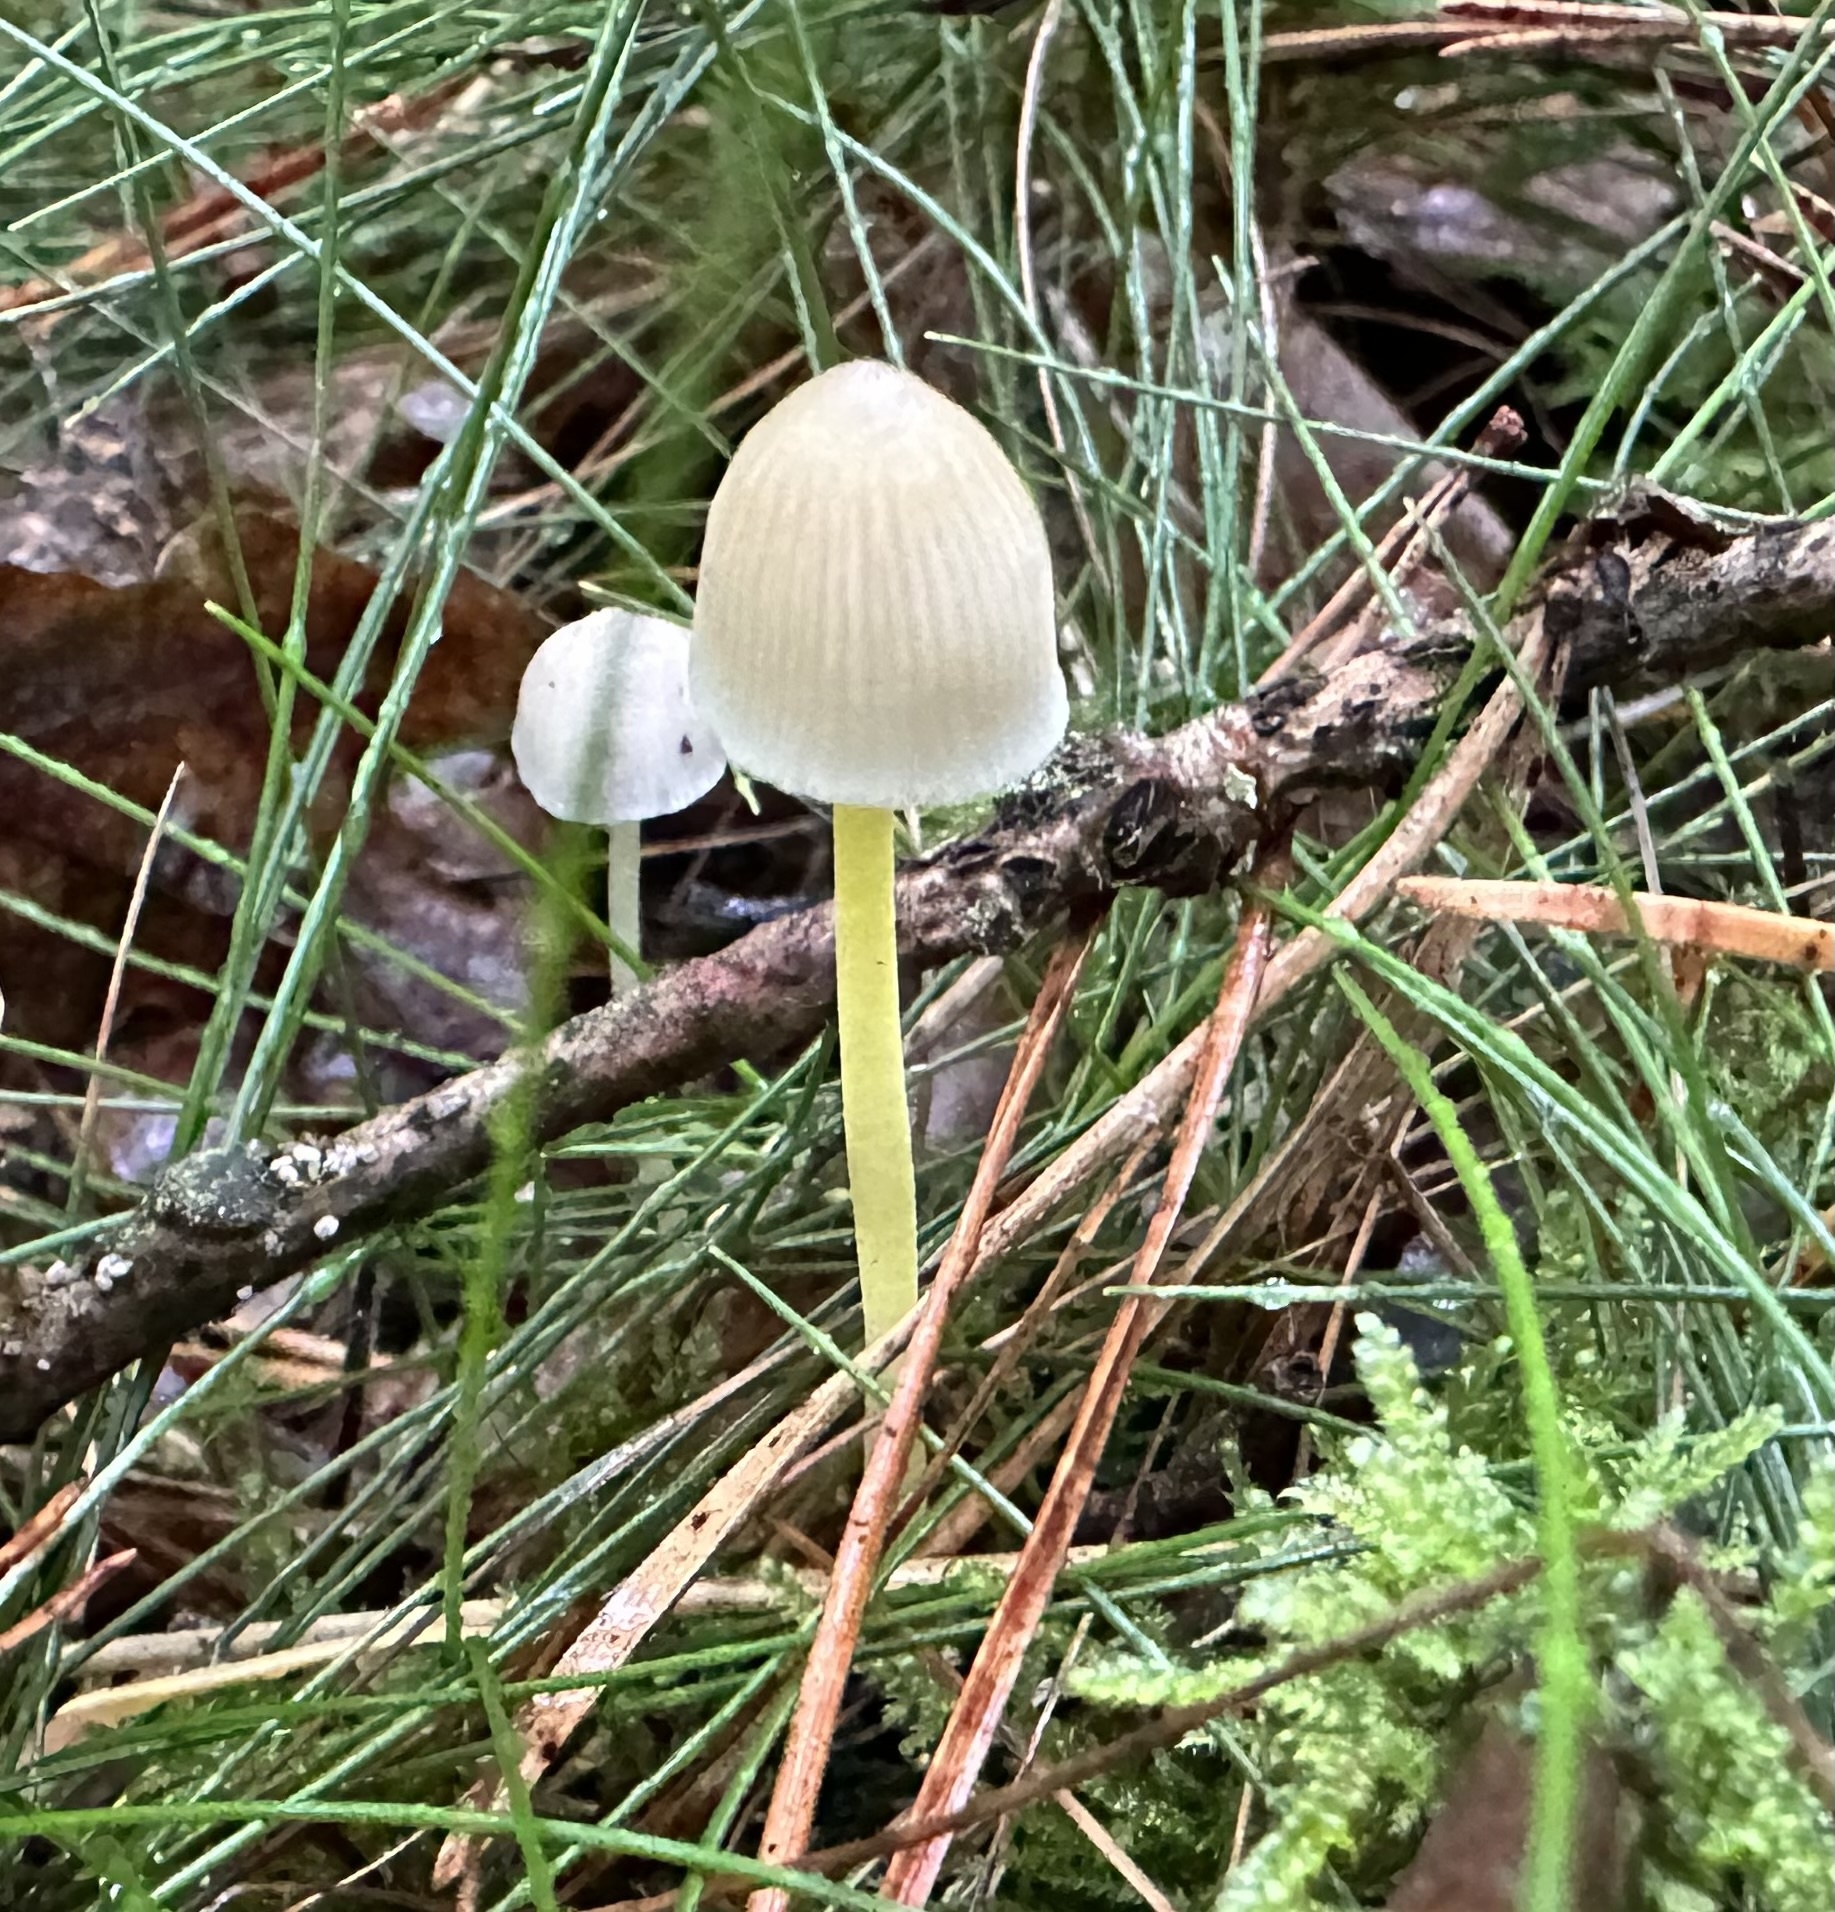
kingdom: Fungi
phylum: Basidiomycota
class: Agaricomycetes
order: Agaricales
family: Mycenaceae
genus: Mycena
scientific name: Mycena epipterygia
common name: Yellowleg bonnet
